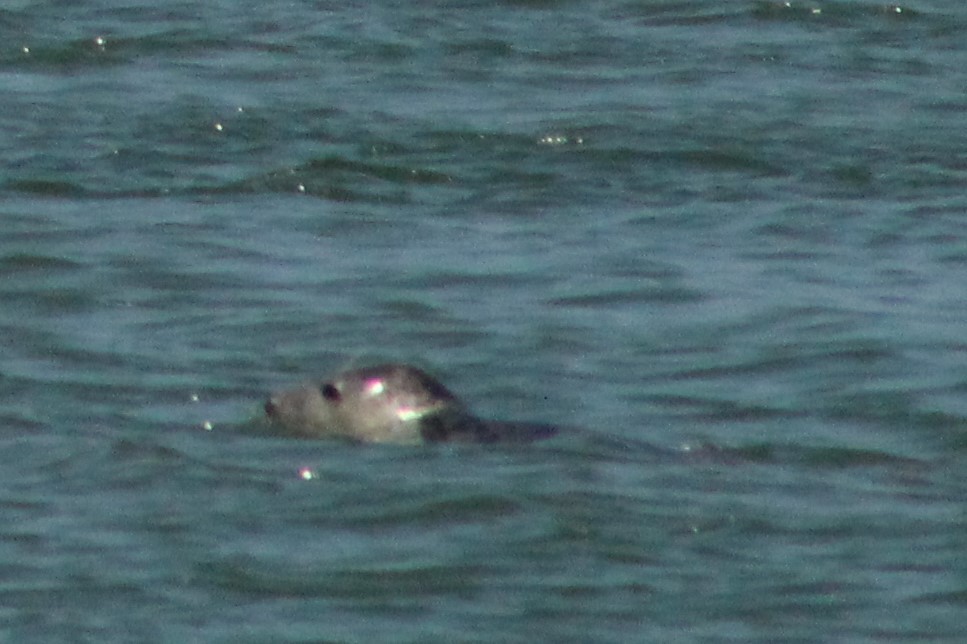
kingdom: Animalia
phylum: Chordata
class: Mammalia
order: Carnivora
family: Phocidae
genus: Halichoerus
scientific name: Halichoerus grypus
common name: Grey seal
